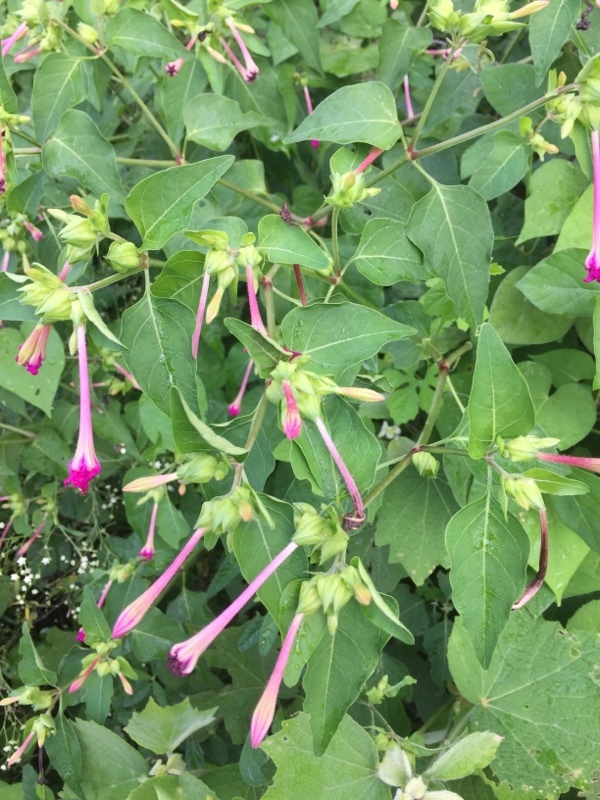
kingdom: Plantae
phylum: Tracheophyta
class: Magnoliopsida
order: Caryophyllales
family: Nyctaginaceae
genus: Mirabilis
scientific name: Mirabilis jalapa
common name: Marvel-of-peru
